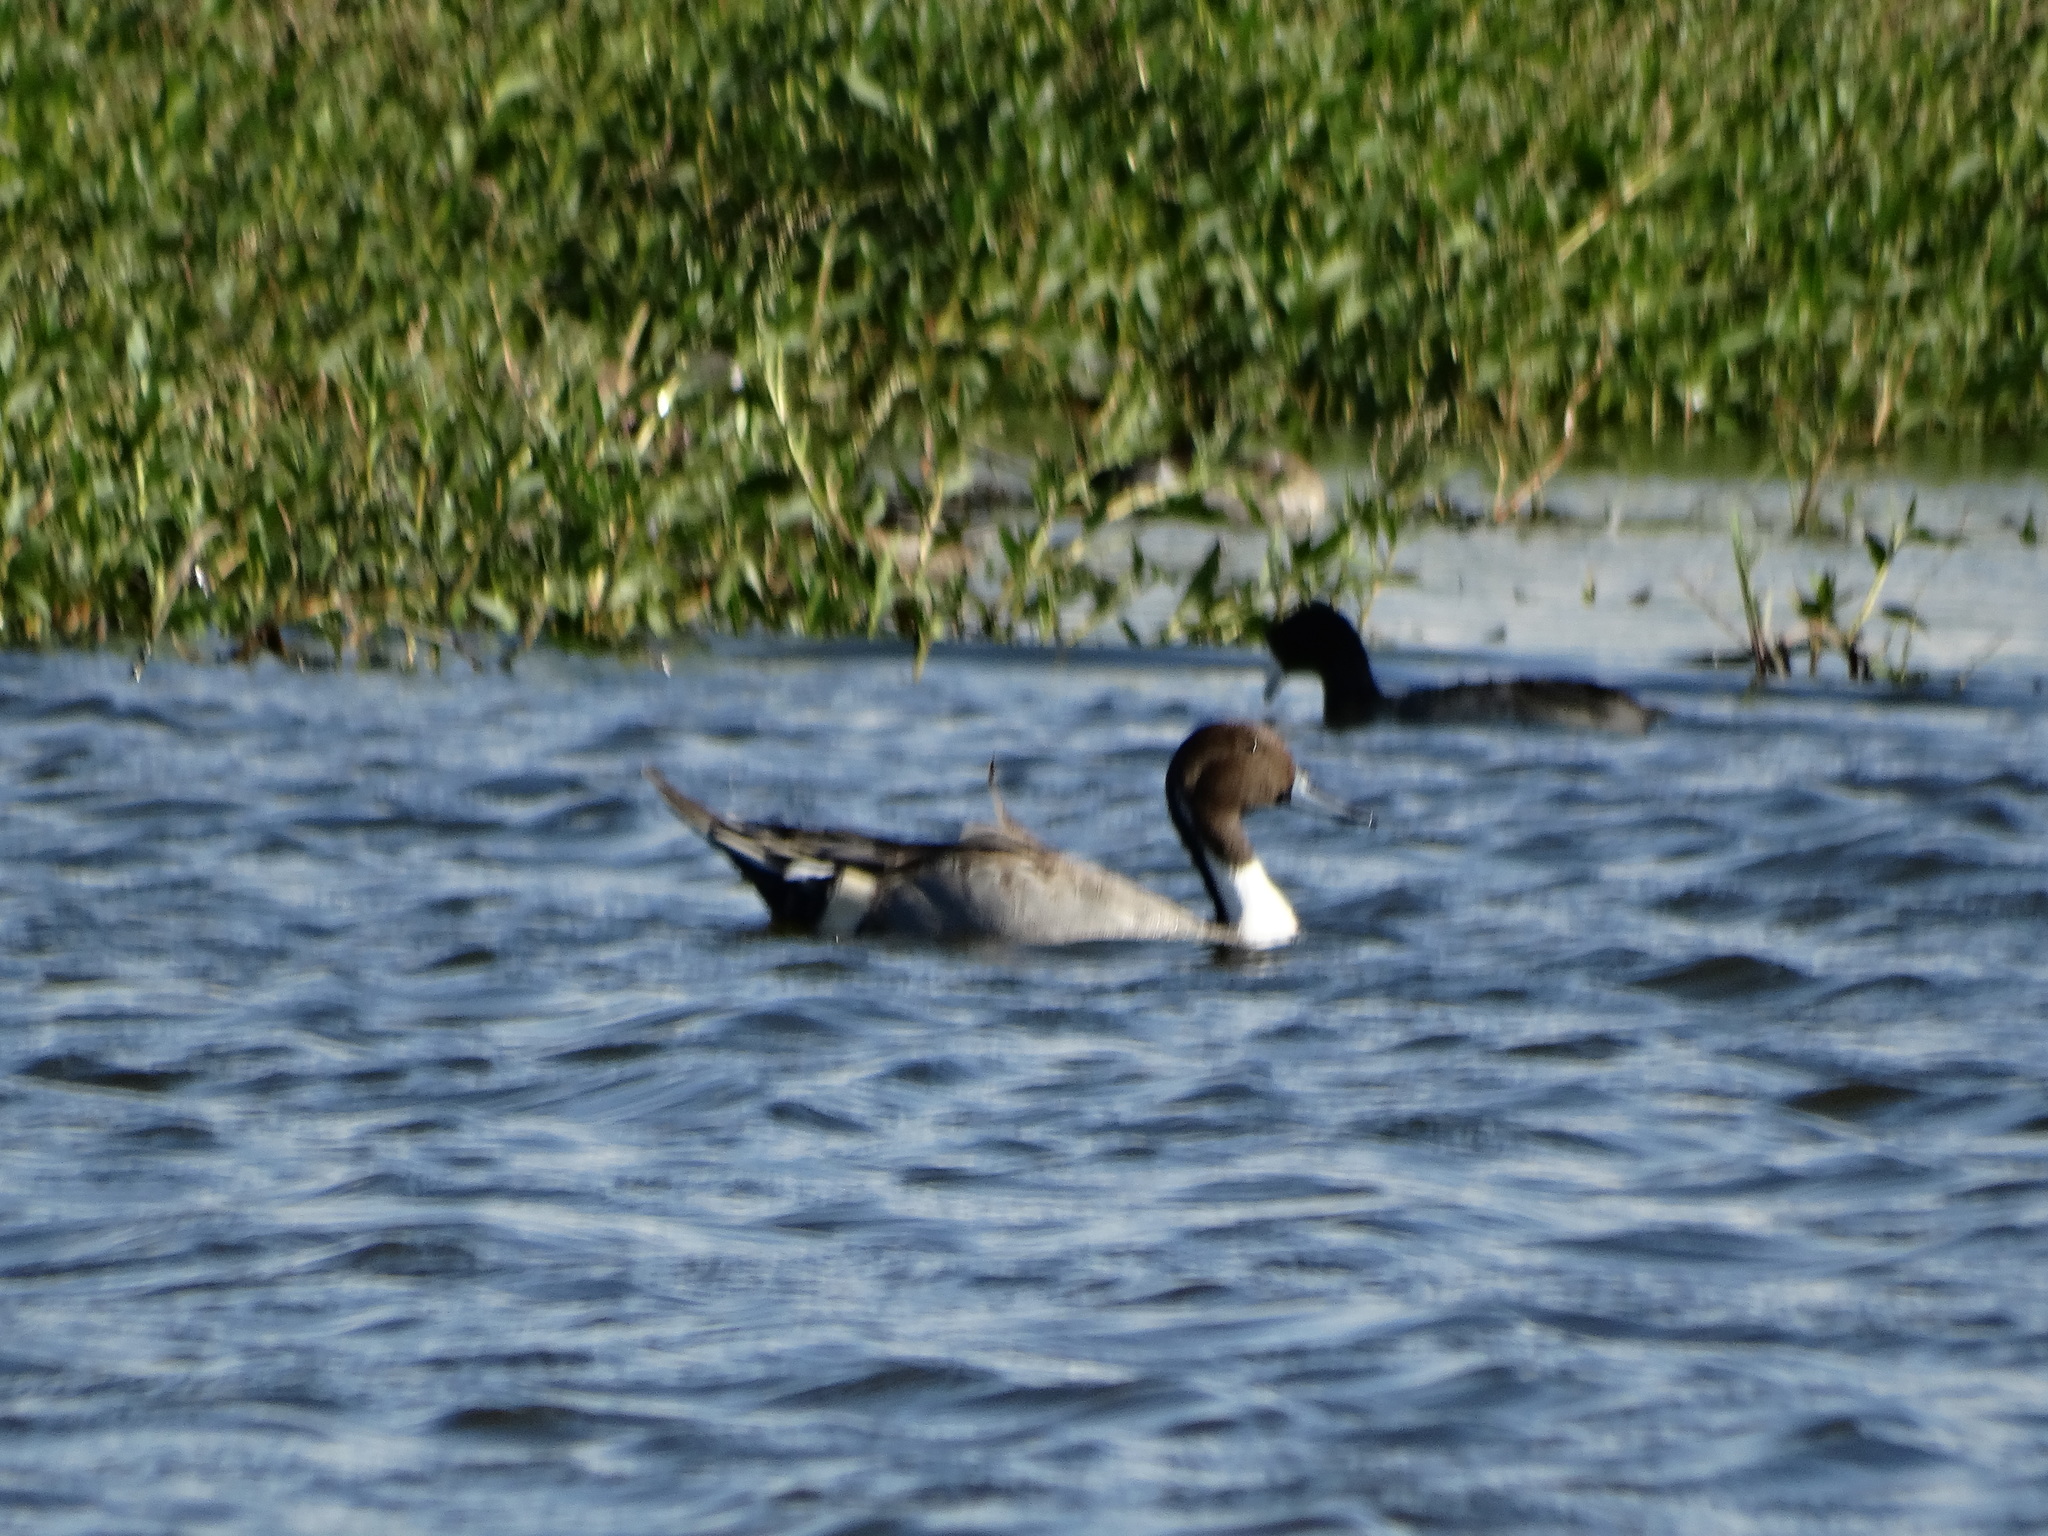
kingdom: Animalia
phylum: Chordata
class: Aves
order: Anseriformes
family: Anatidae
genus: Anas
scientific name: Anas acuta
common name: Northern pintail
